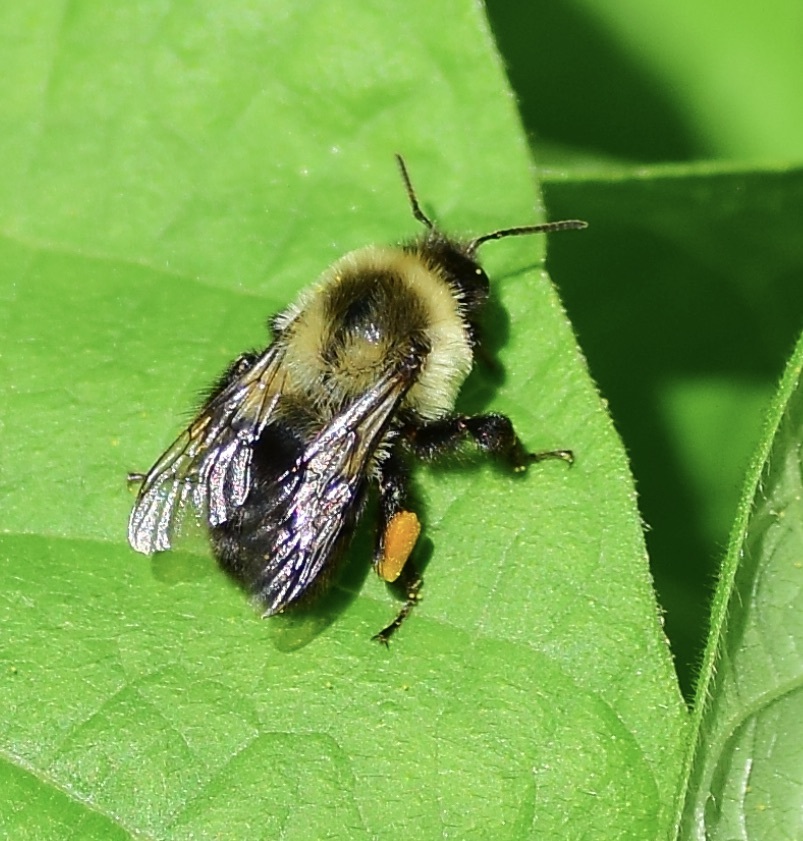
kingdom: Animalia
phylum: Arthropoda
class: Insecta
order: Hymenoptera
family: Apidae
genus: Bombus
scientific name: Bombus impatiens
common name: Common eastern bumble bee
